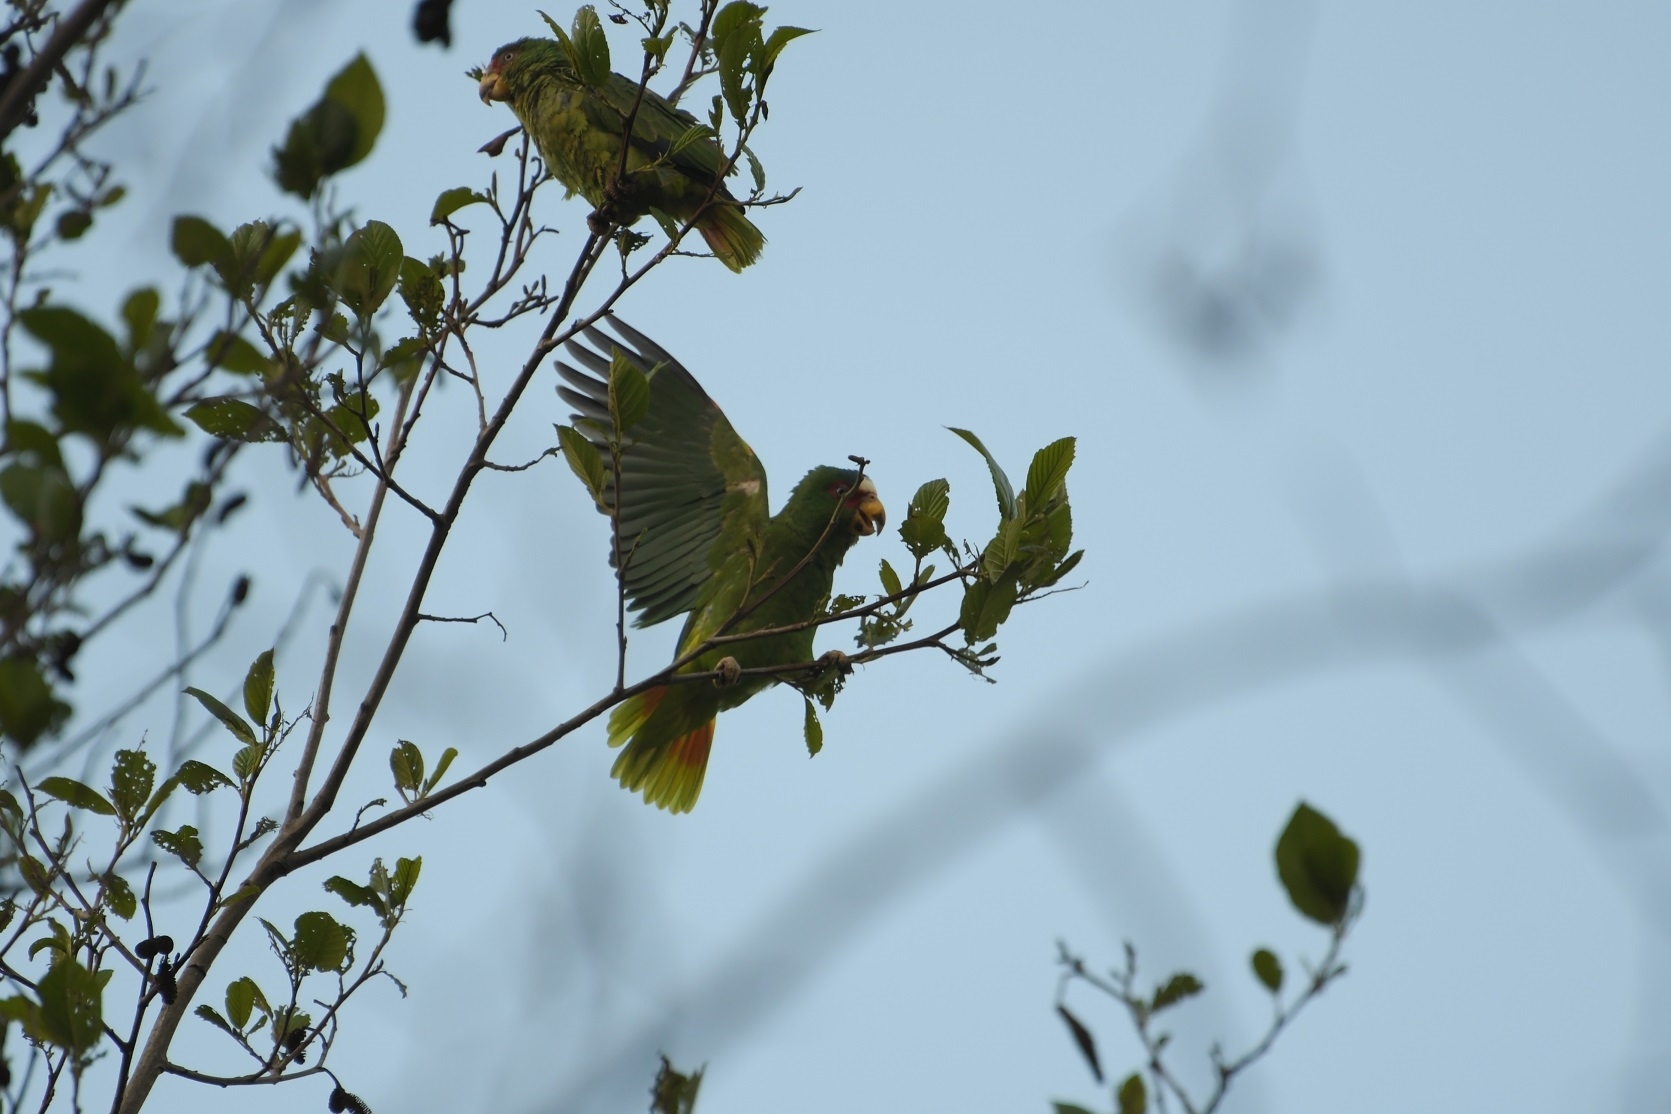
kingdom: Animalia
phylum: Chordata
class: Aves
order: Psittaciformes
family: Psittacidae
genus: Amazona
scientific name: Amazona albifrons
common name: White-fronted amazon
